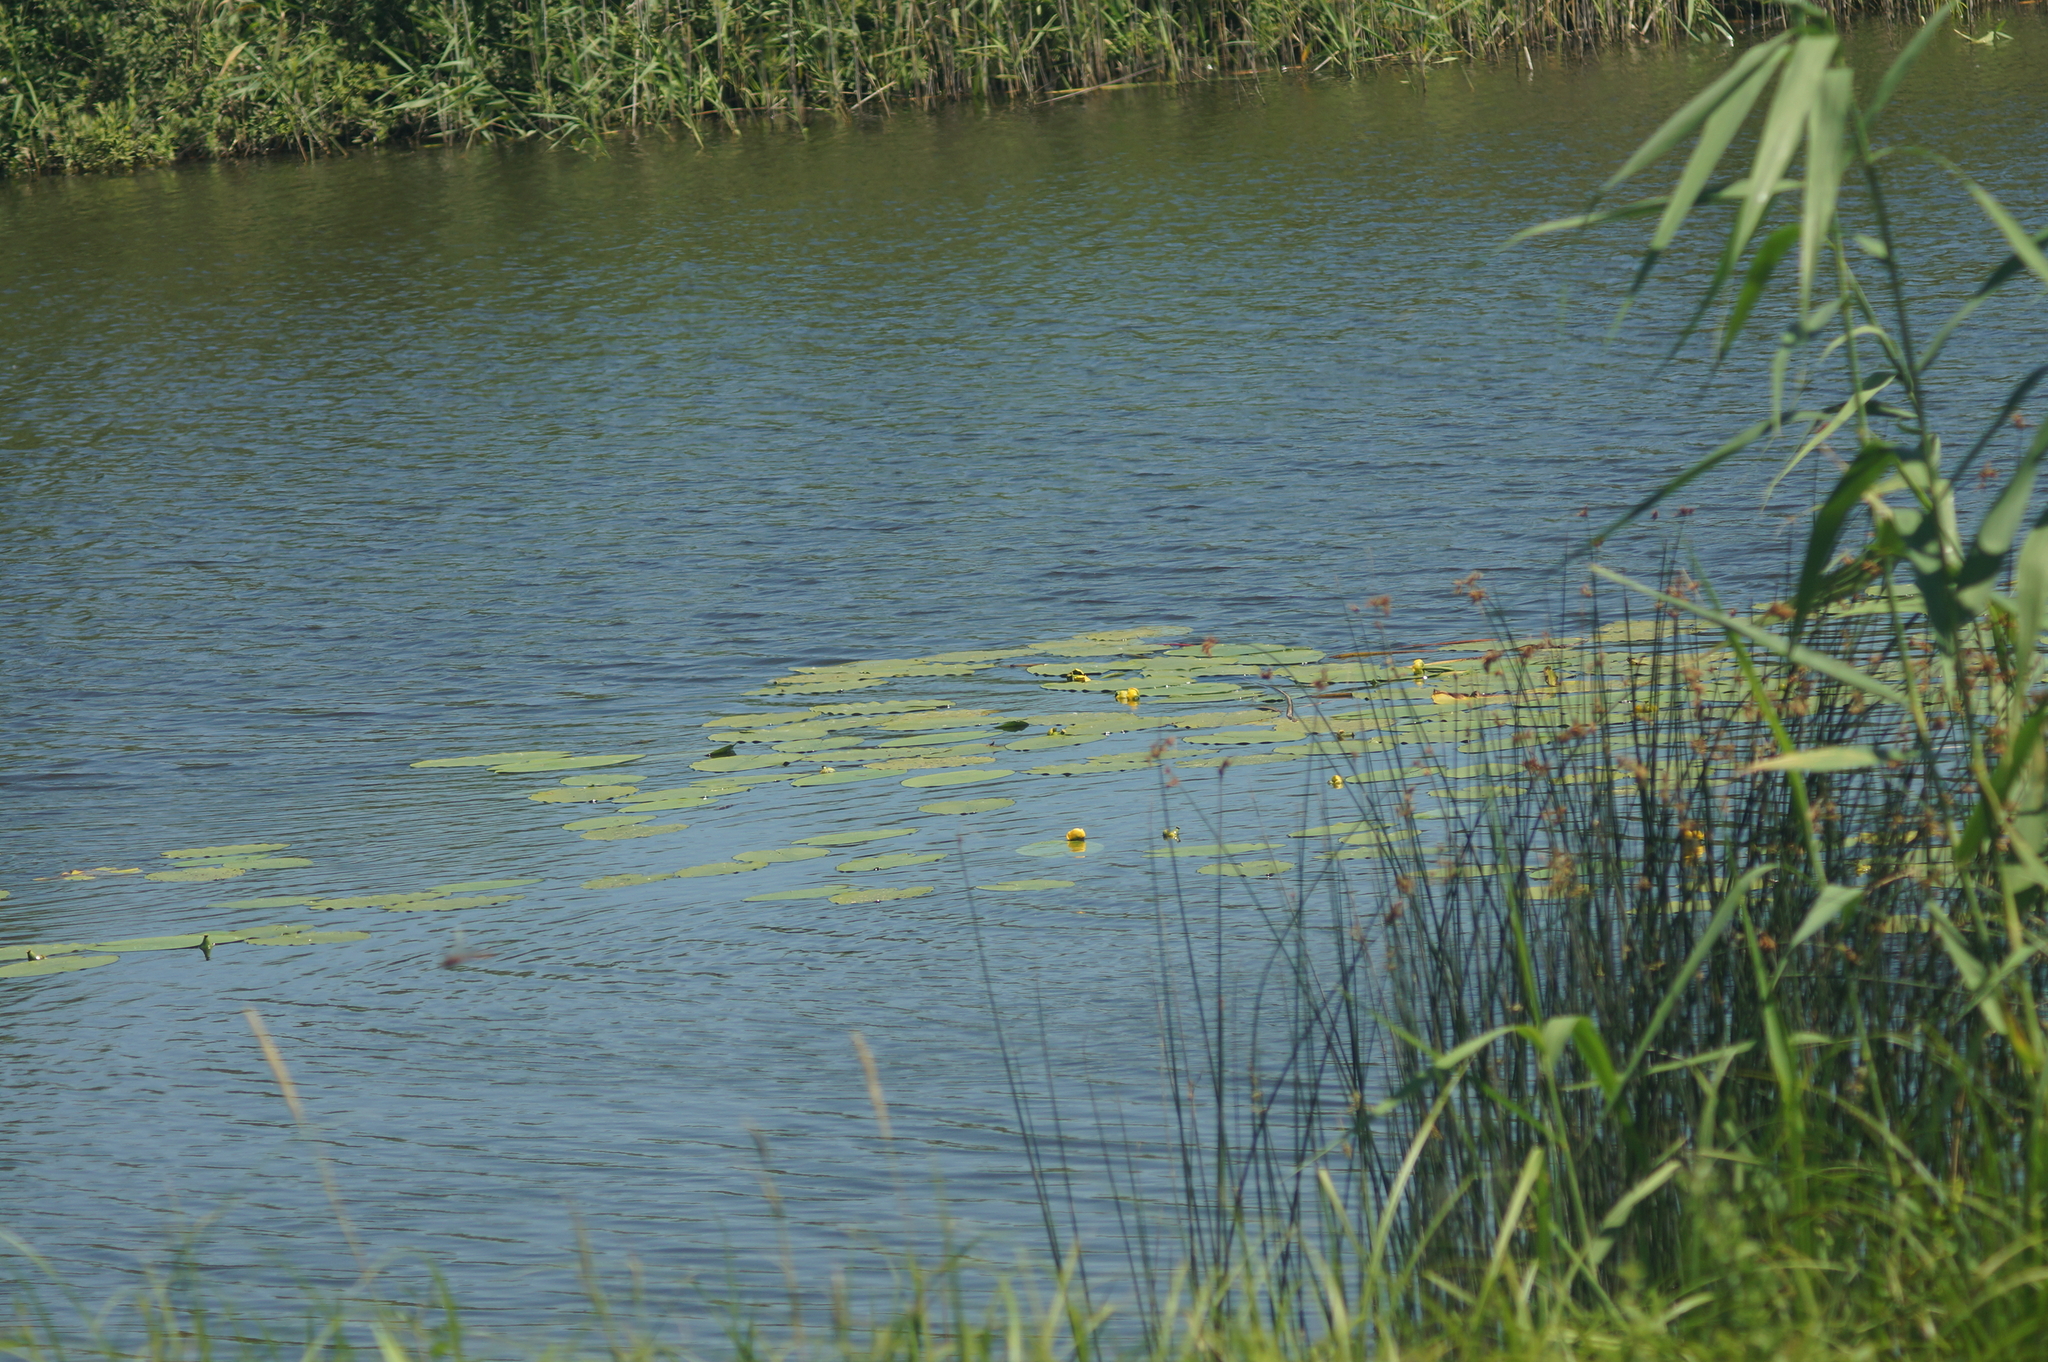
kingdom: Plantae
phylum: Tracheophyta
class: Magnoliopsida
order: Nymphaeales
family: Nymphaeaceae
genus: Nuphar
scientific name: Nuphar lutea
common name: Yellow water-lily
